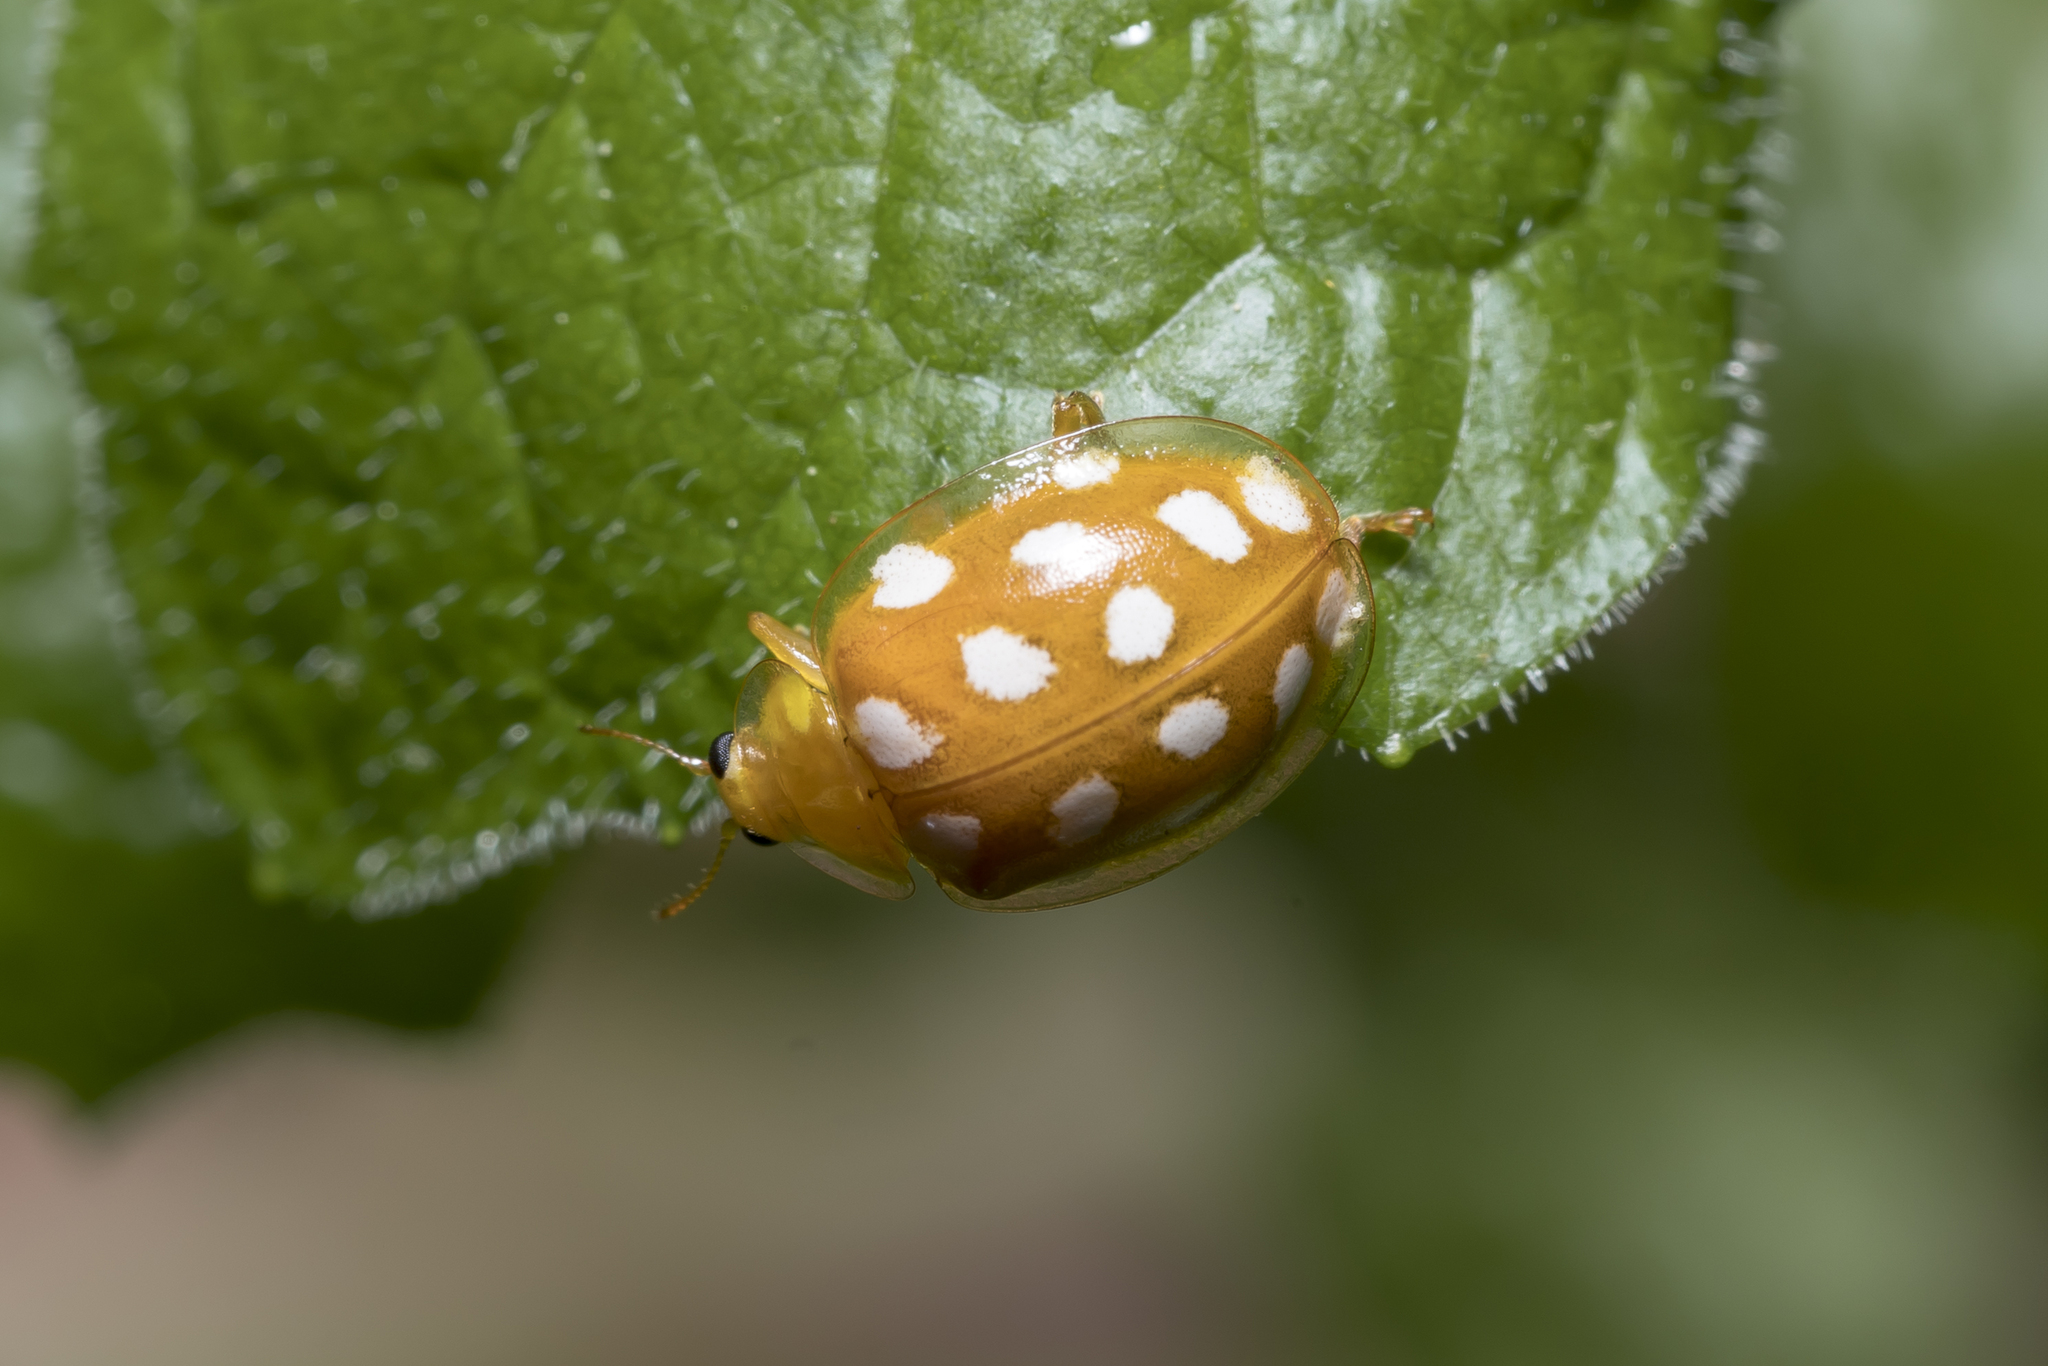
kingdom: Animalia
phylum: Arthropoda
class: Insecta
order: Coleoptera
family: Coccinellidae
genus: Halyzia
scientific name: Halyzia sedecimguttata
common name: Orange ladybird
